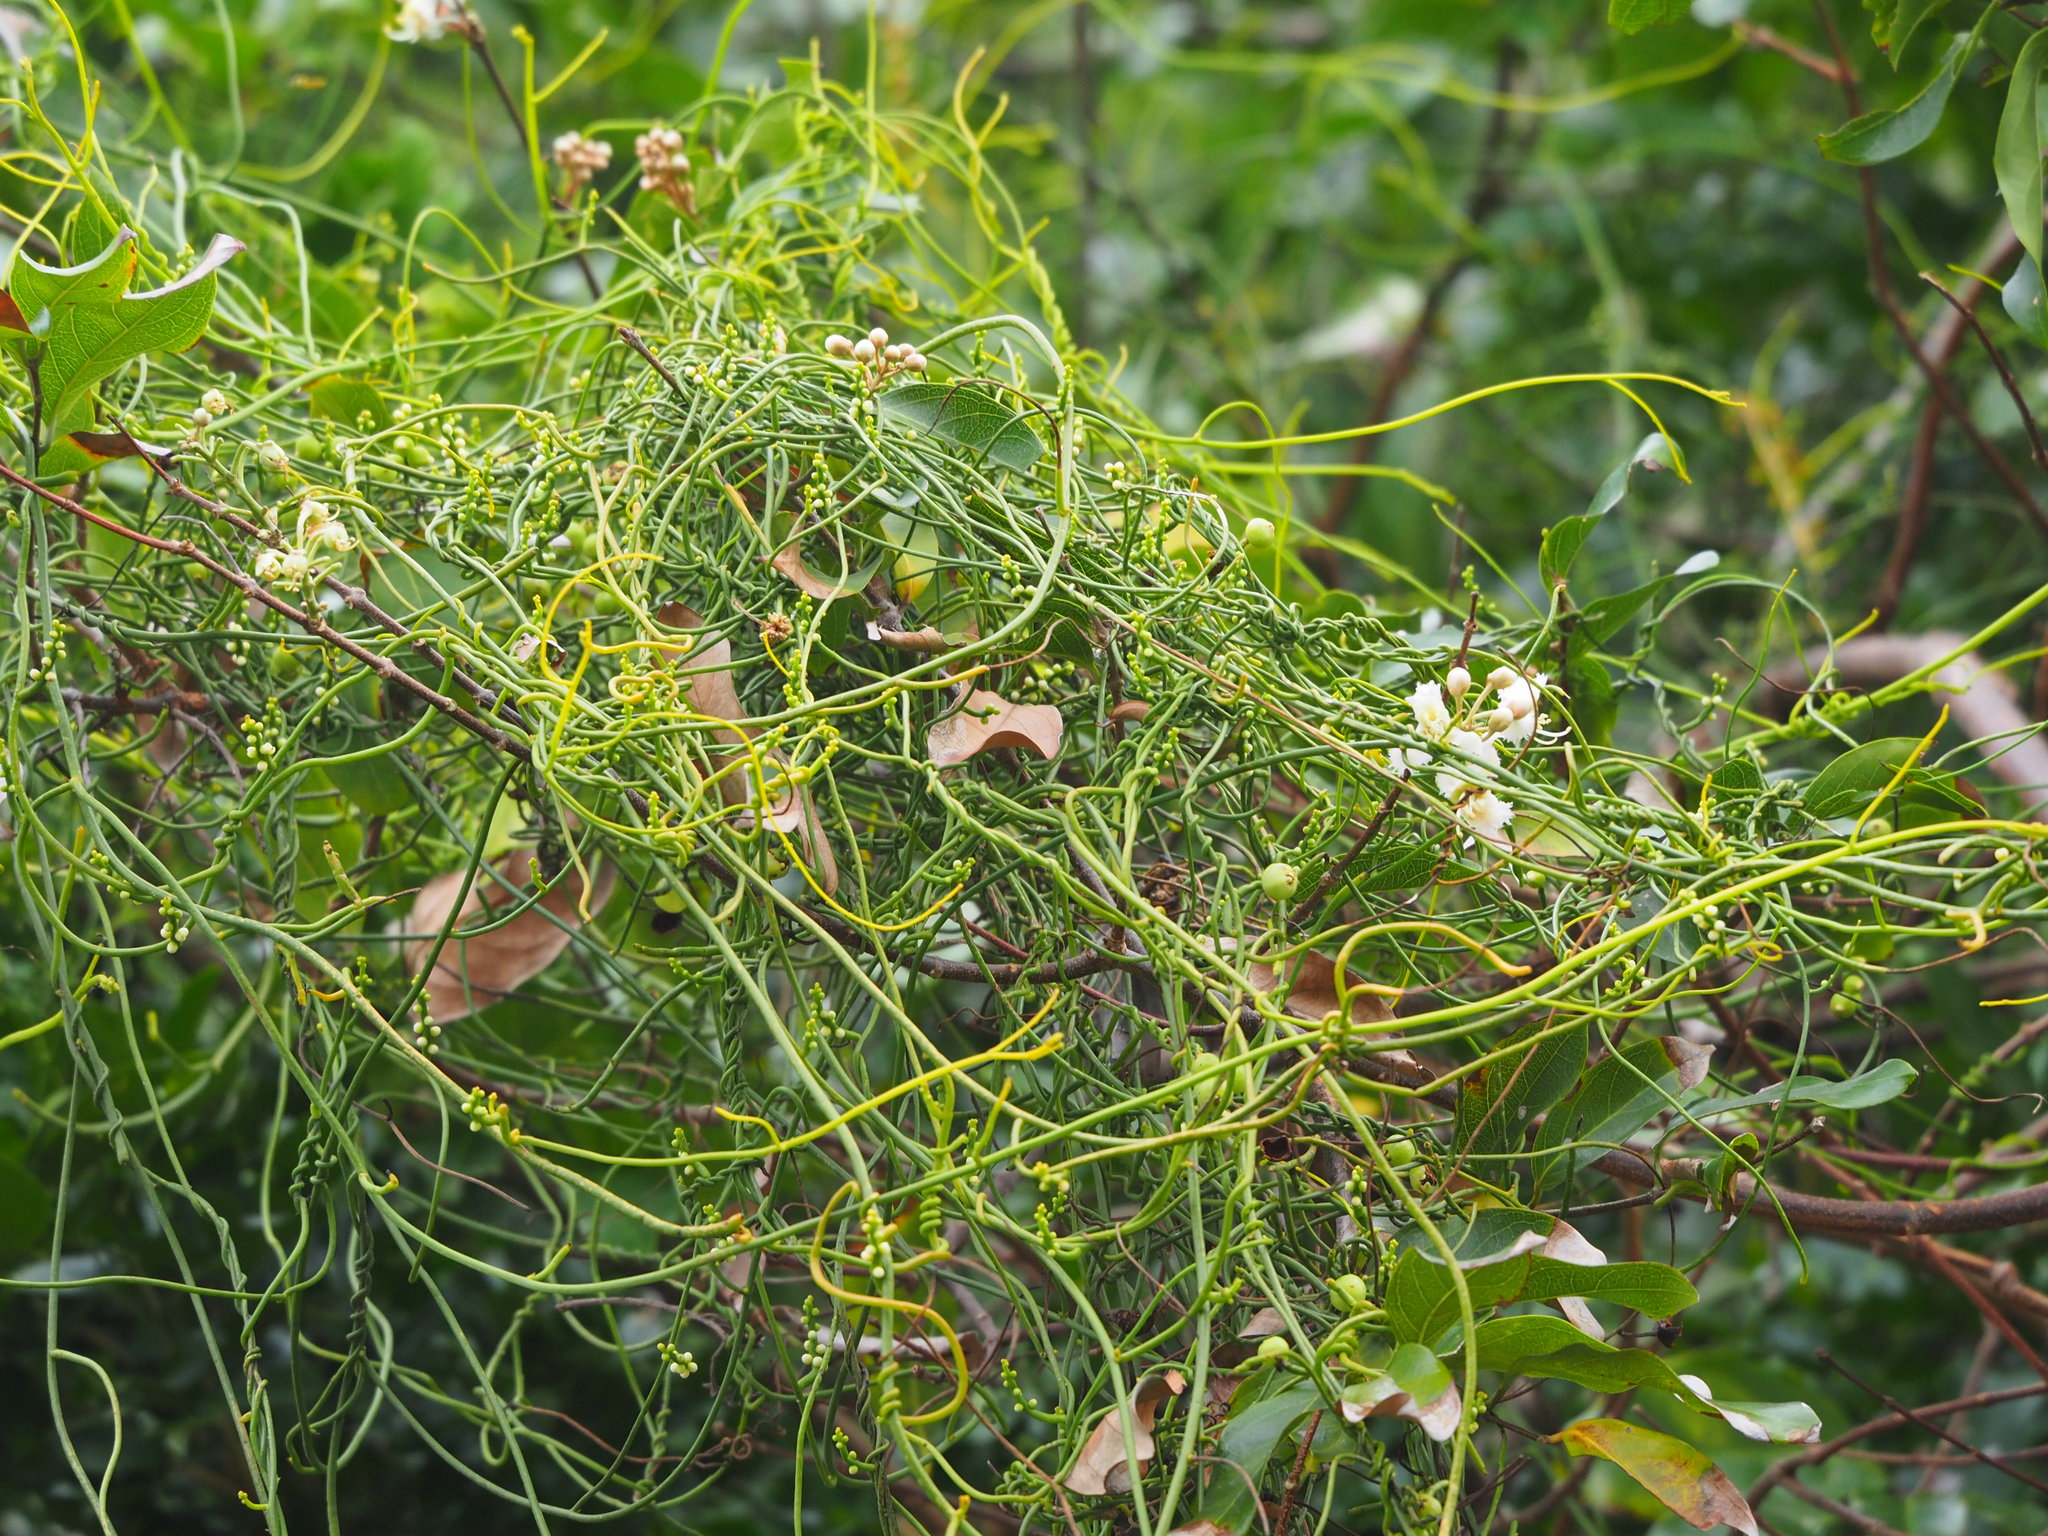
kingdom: Plantae
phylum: Tracheophyta
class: Magnoliopsida
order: Laurales
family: Lauraceae
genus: Cassytha
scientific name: Cassytha filiformis
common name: Dodder-laurel
